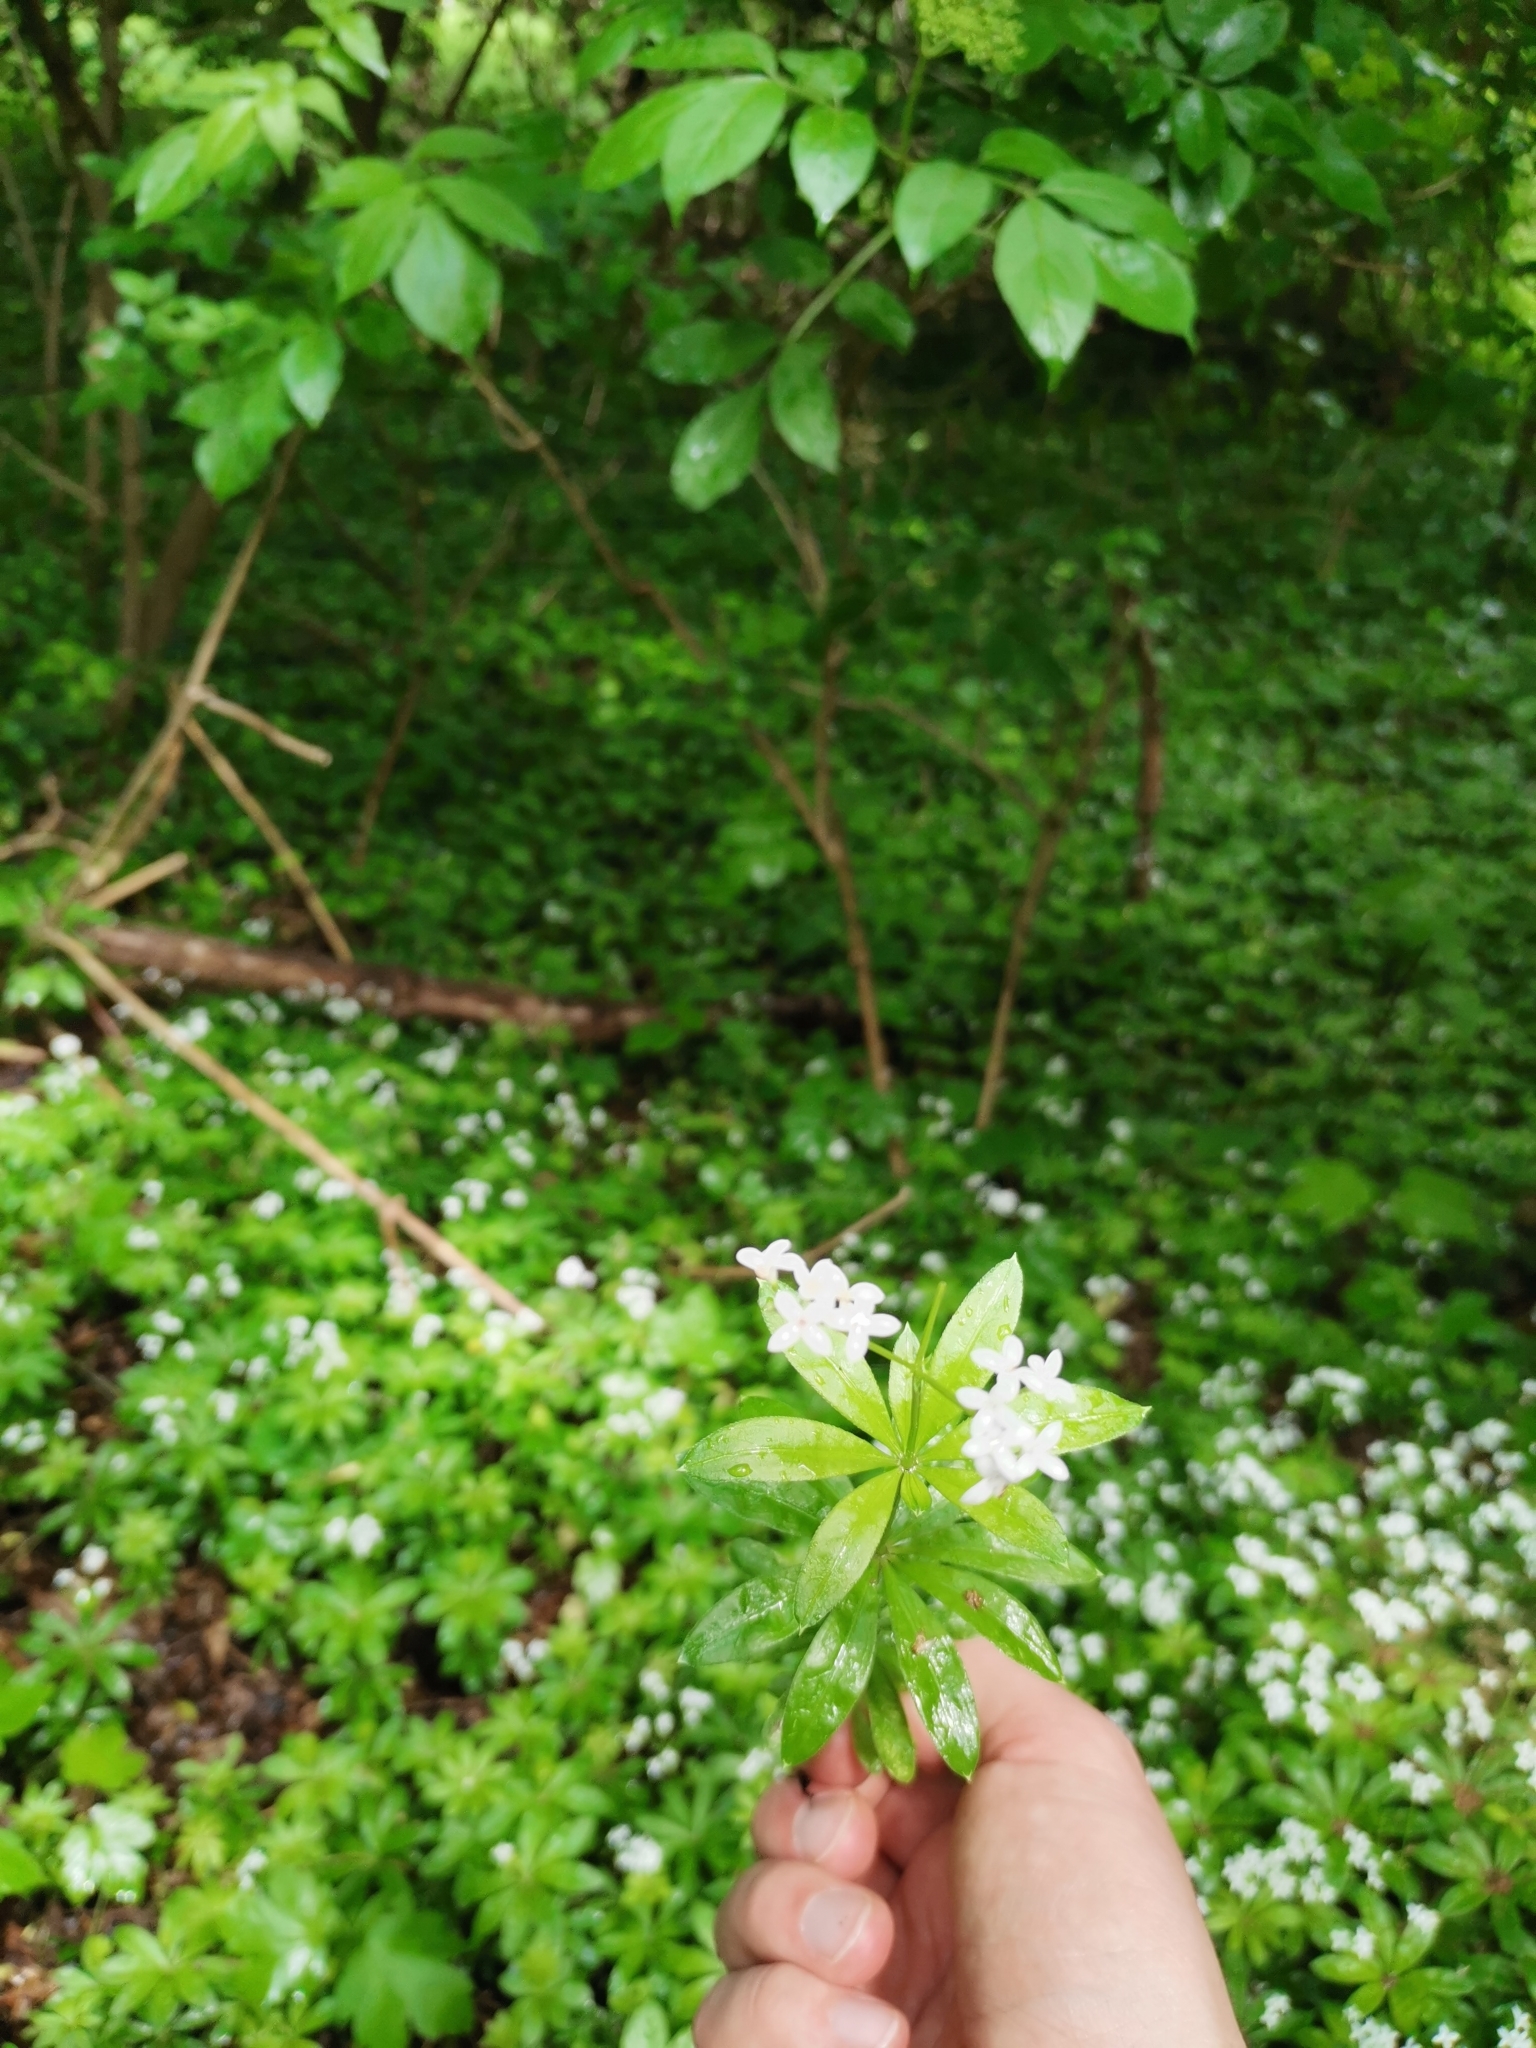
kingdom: Plantae
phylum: Tracheophyta
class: Magnoliopsida
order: Gentianales
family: Rubiaceae
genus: Galium
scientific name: Galium odoratum
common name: Sweet woodruff
